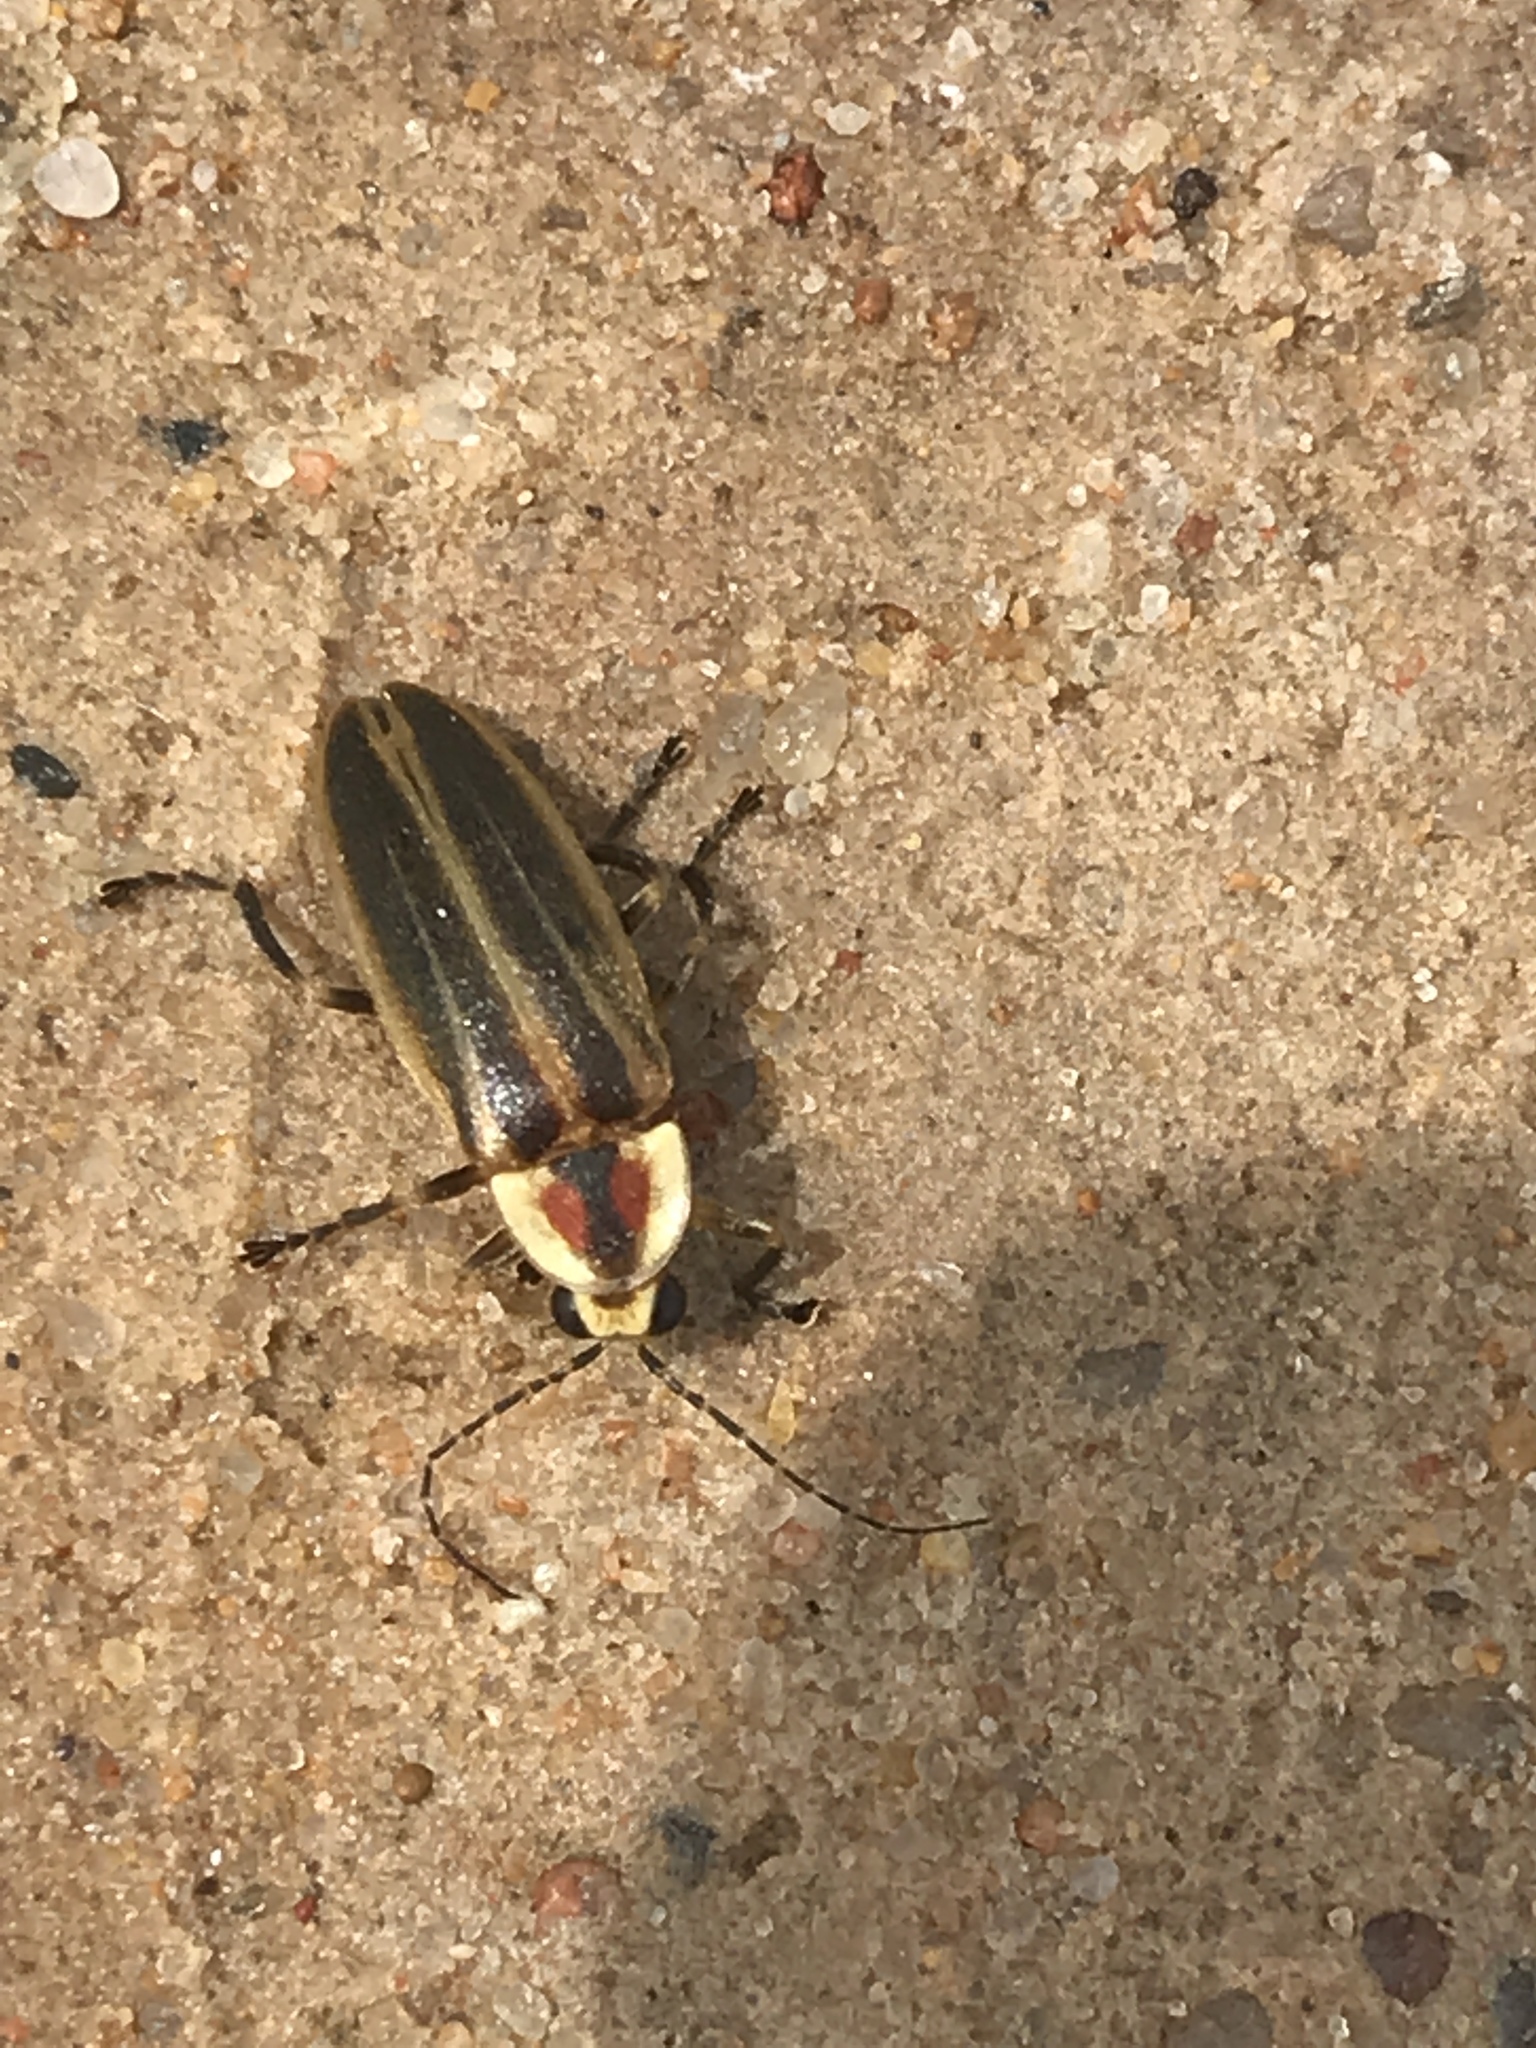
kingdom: Animalia
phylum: Arthropoda
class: Insecta
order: Coleoptera
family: Lampyridae
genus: Photuris
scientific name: Photuris
